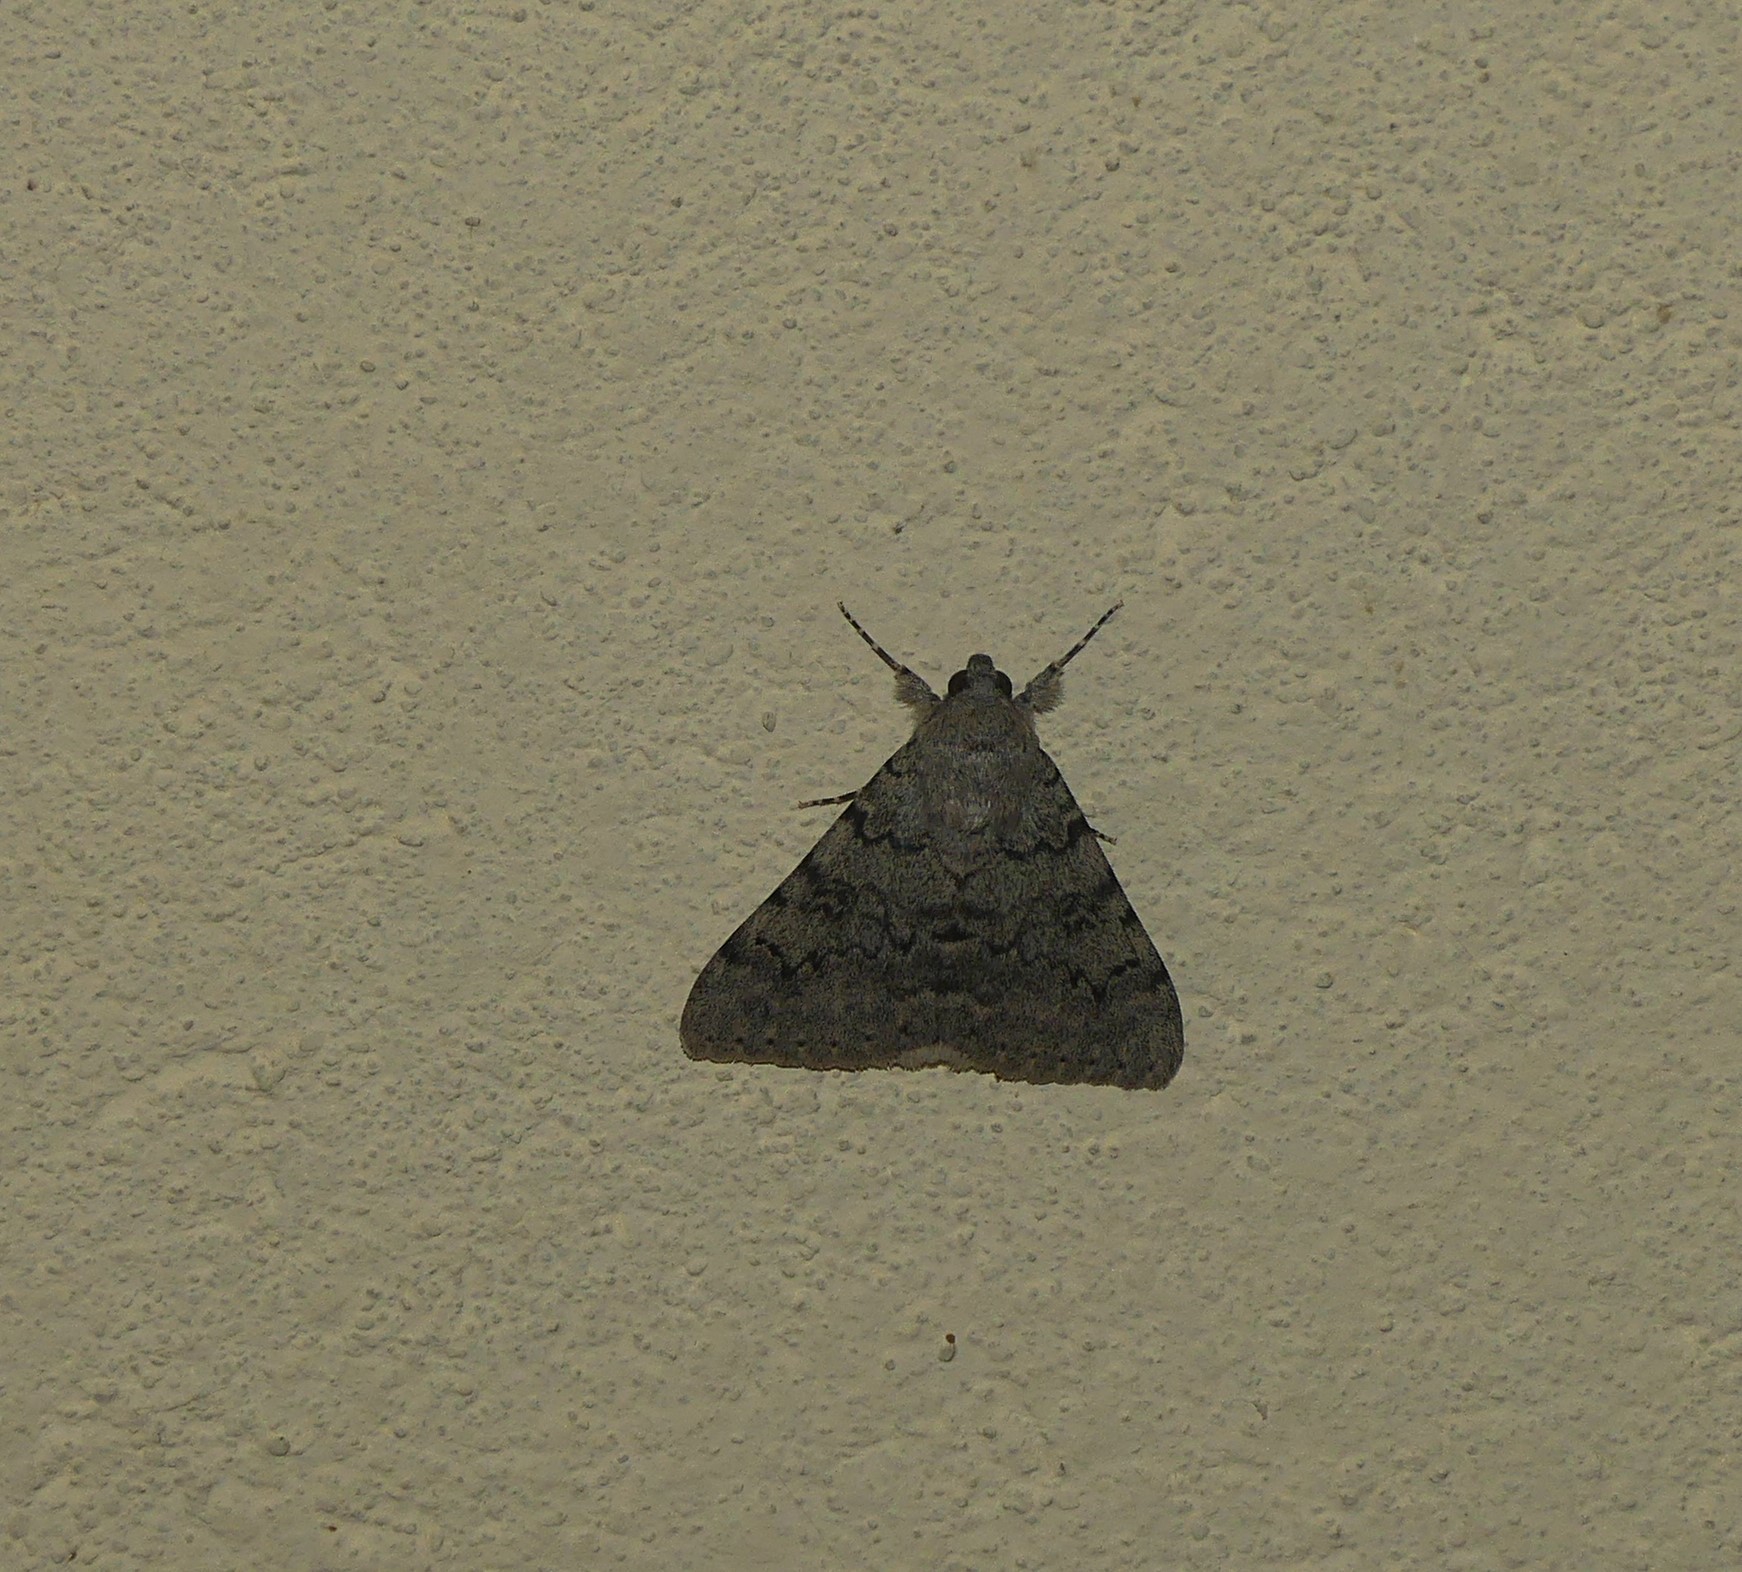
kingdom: Animalia
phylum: Arthropoda
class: Insecta
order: Lepidoptera
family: Erebidae
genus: Catocala
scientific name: Catocala puerpera
